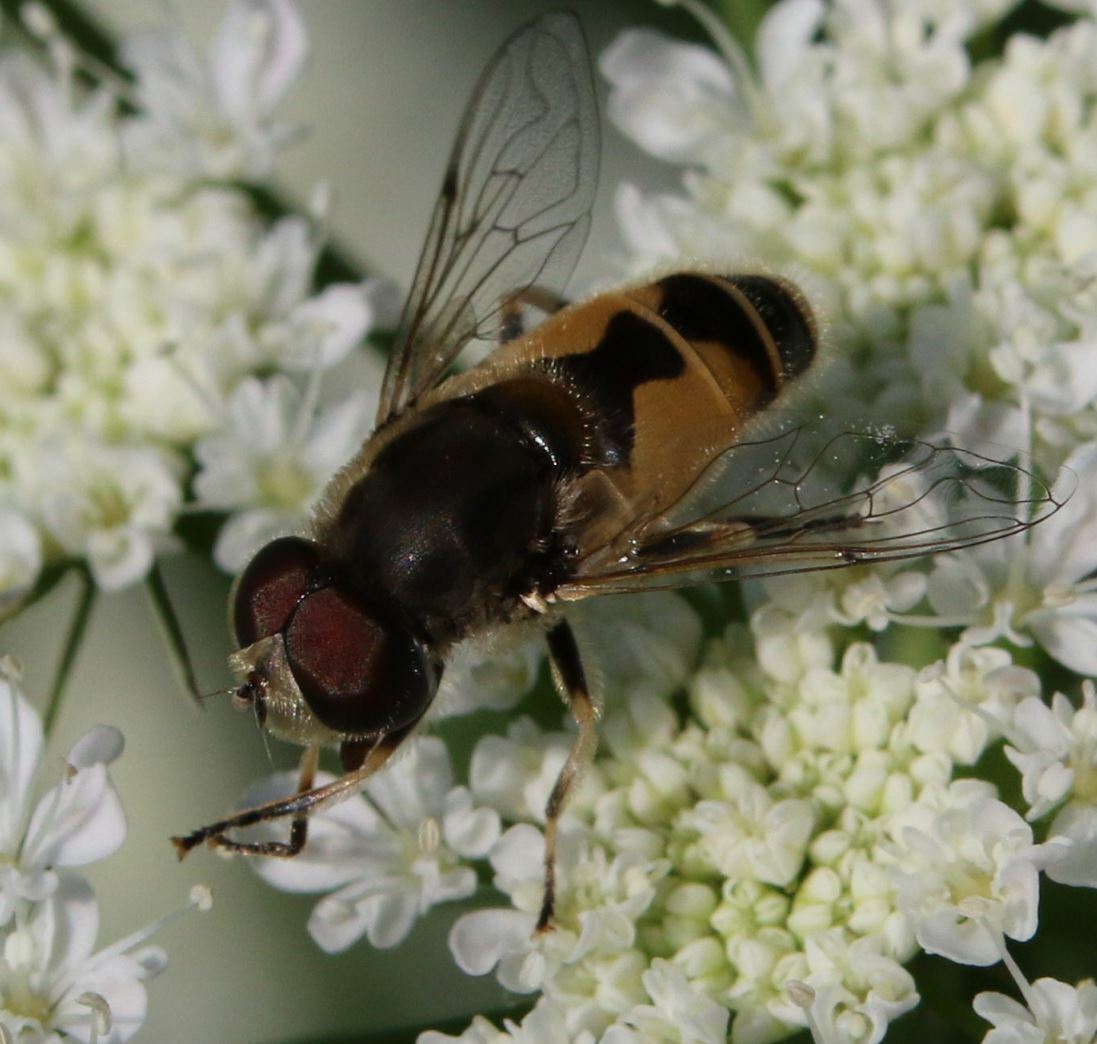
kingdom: Animalia
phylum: Arthropoda
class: Insecta
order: Diptera
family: Syrphidae
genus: Eristalis
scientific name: Eristalis arbustorum
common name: Hover fly
